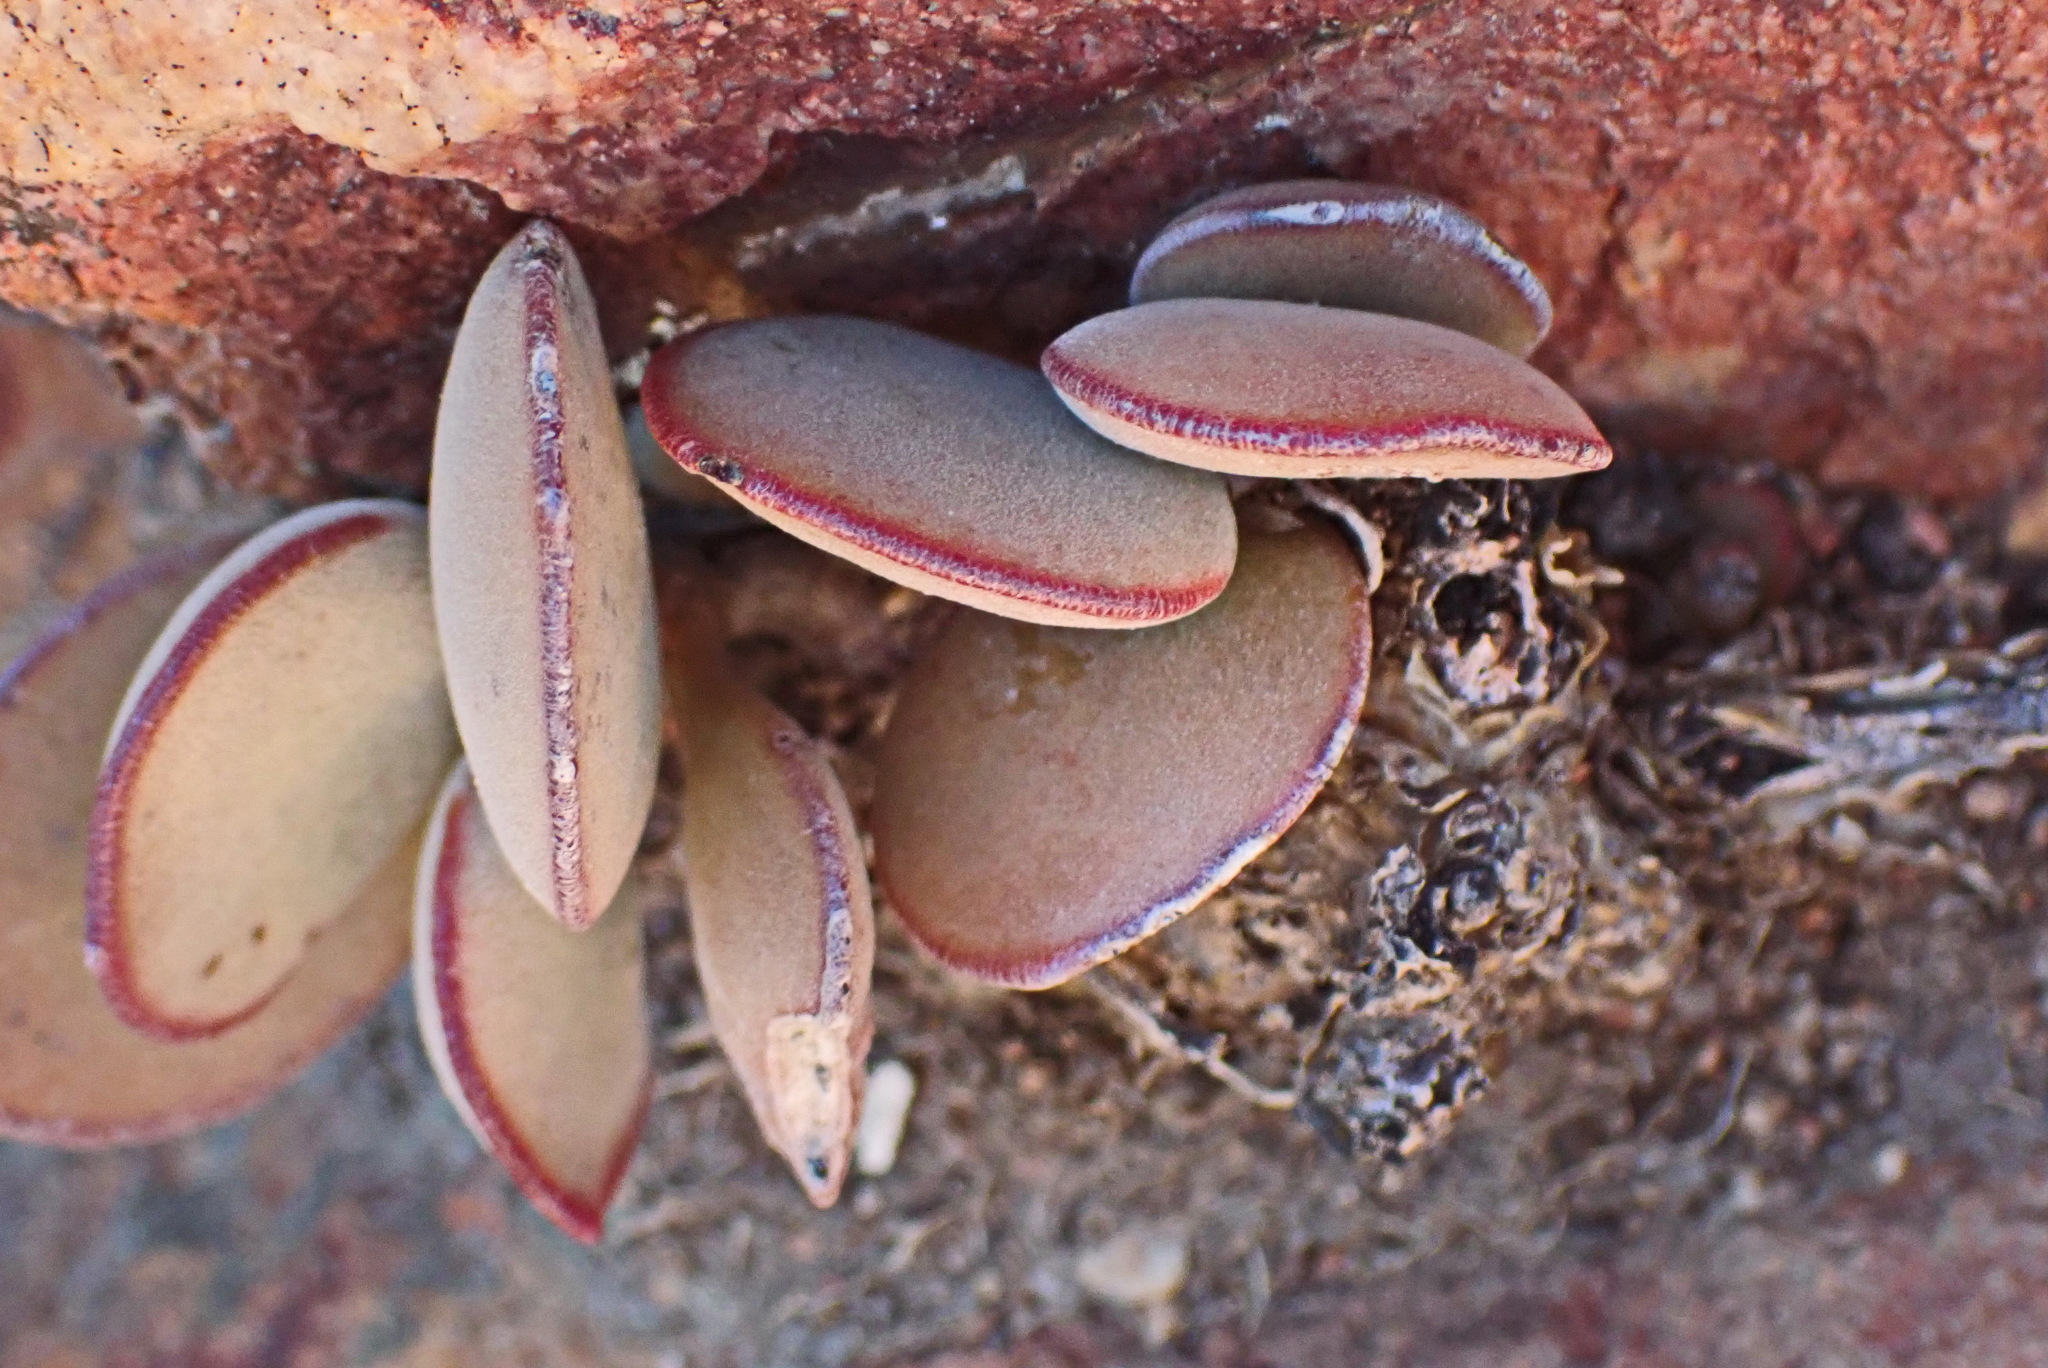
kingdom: Plantae
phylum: Tracheophyta
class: Magnoliopsida
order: Saxifragales
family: Crassulaceae
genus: Adromischus
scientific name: Adromischus maculatus
